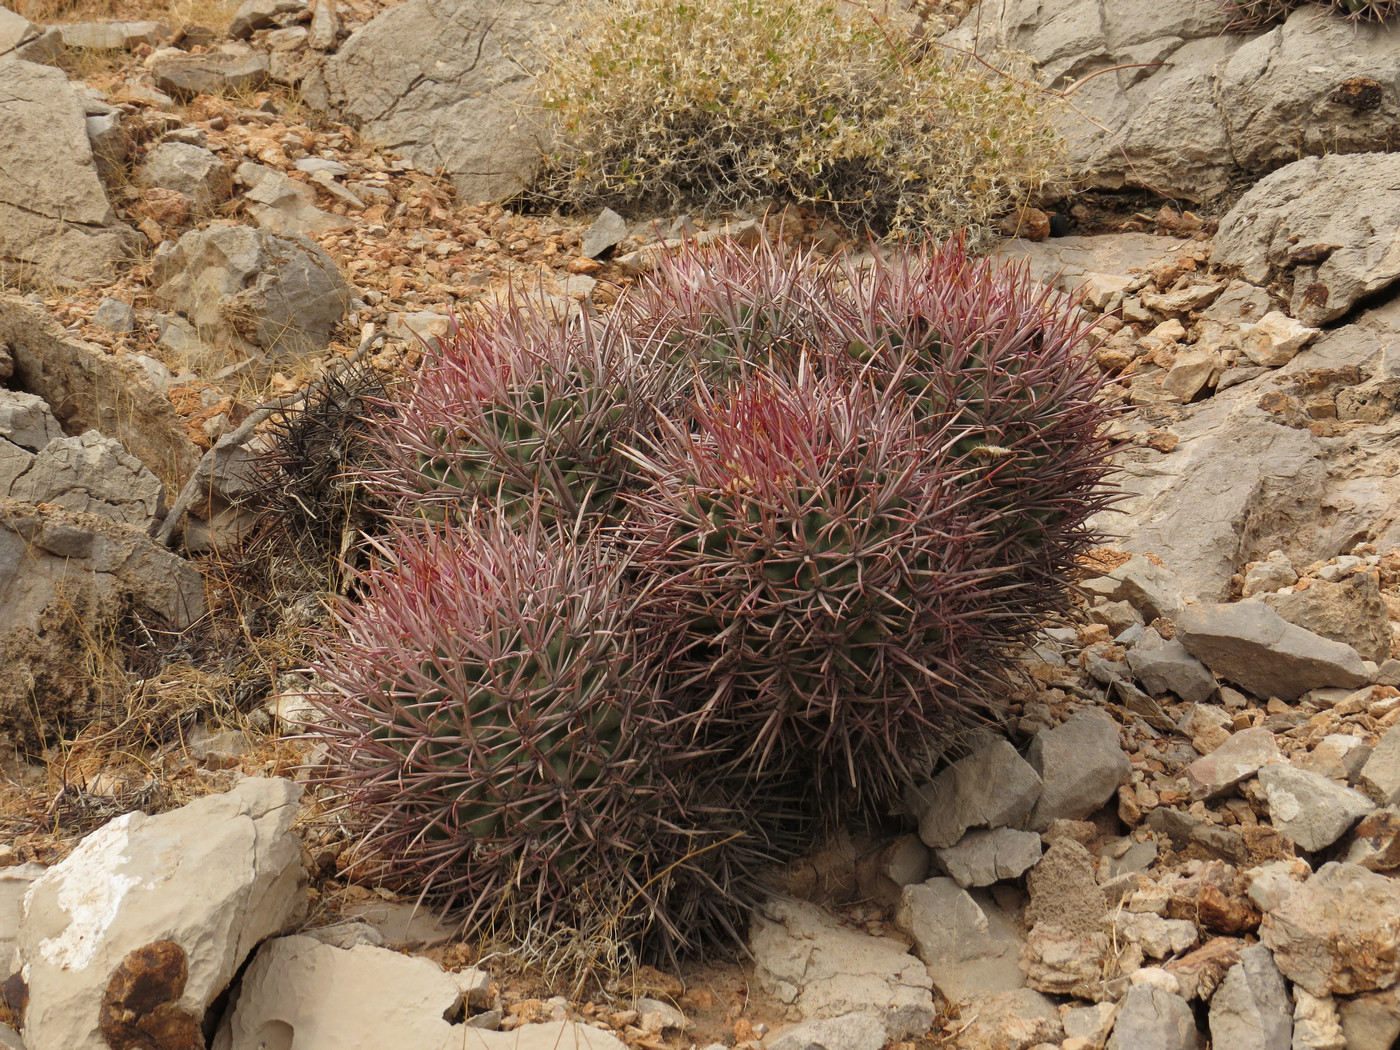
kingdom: Plantae
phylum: Tracheophyta
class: Magnoliopsida
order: Caryophyllales
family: Cactaceae
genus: Echinocactus
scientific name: Echinocactus polycephalus
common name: Cottontop cactus
